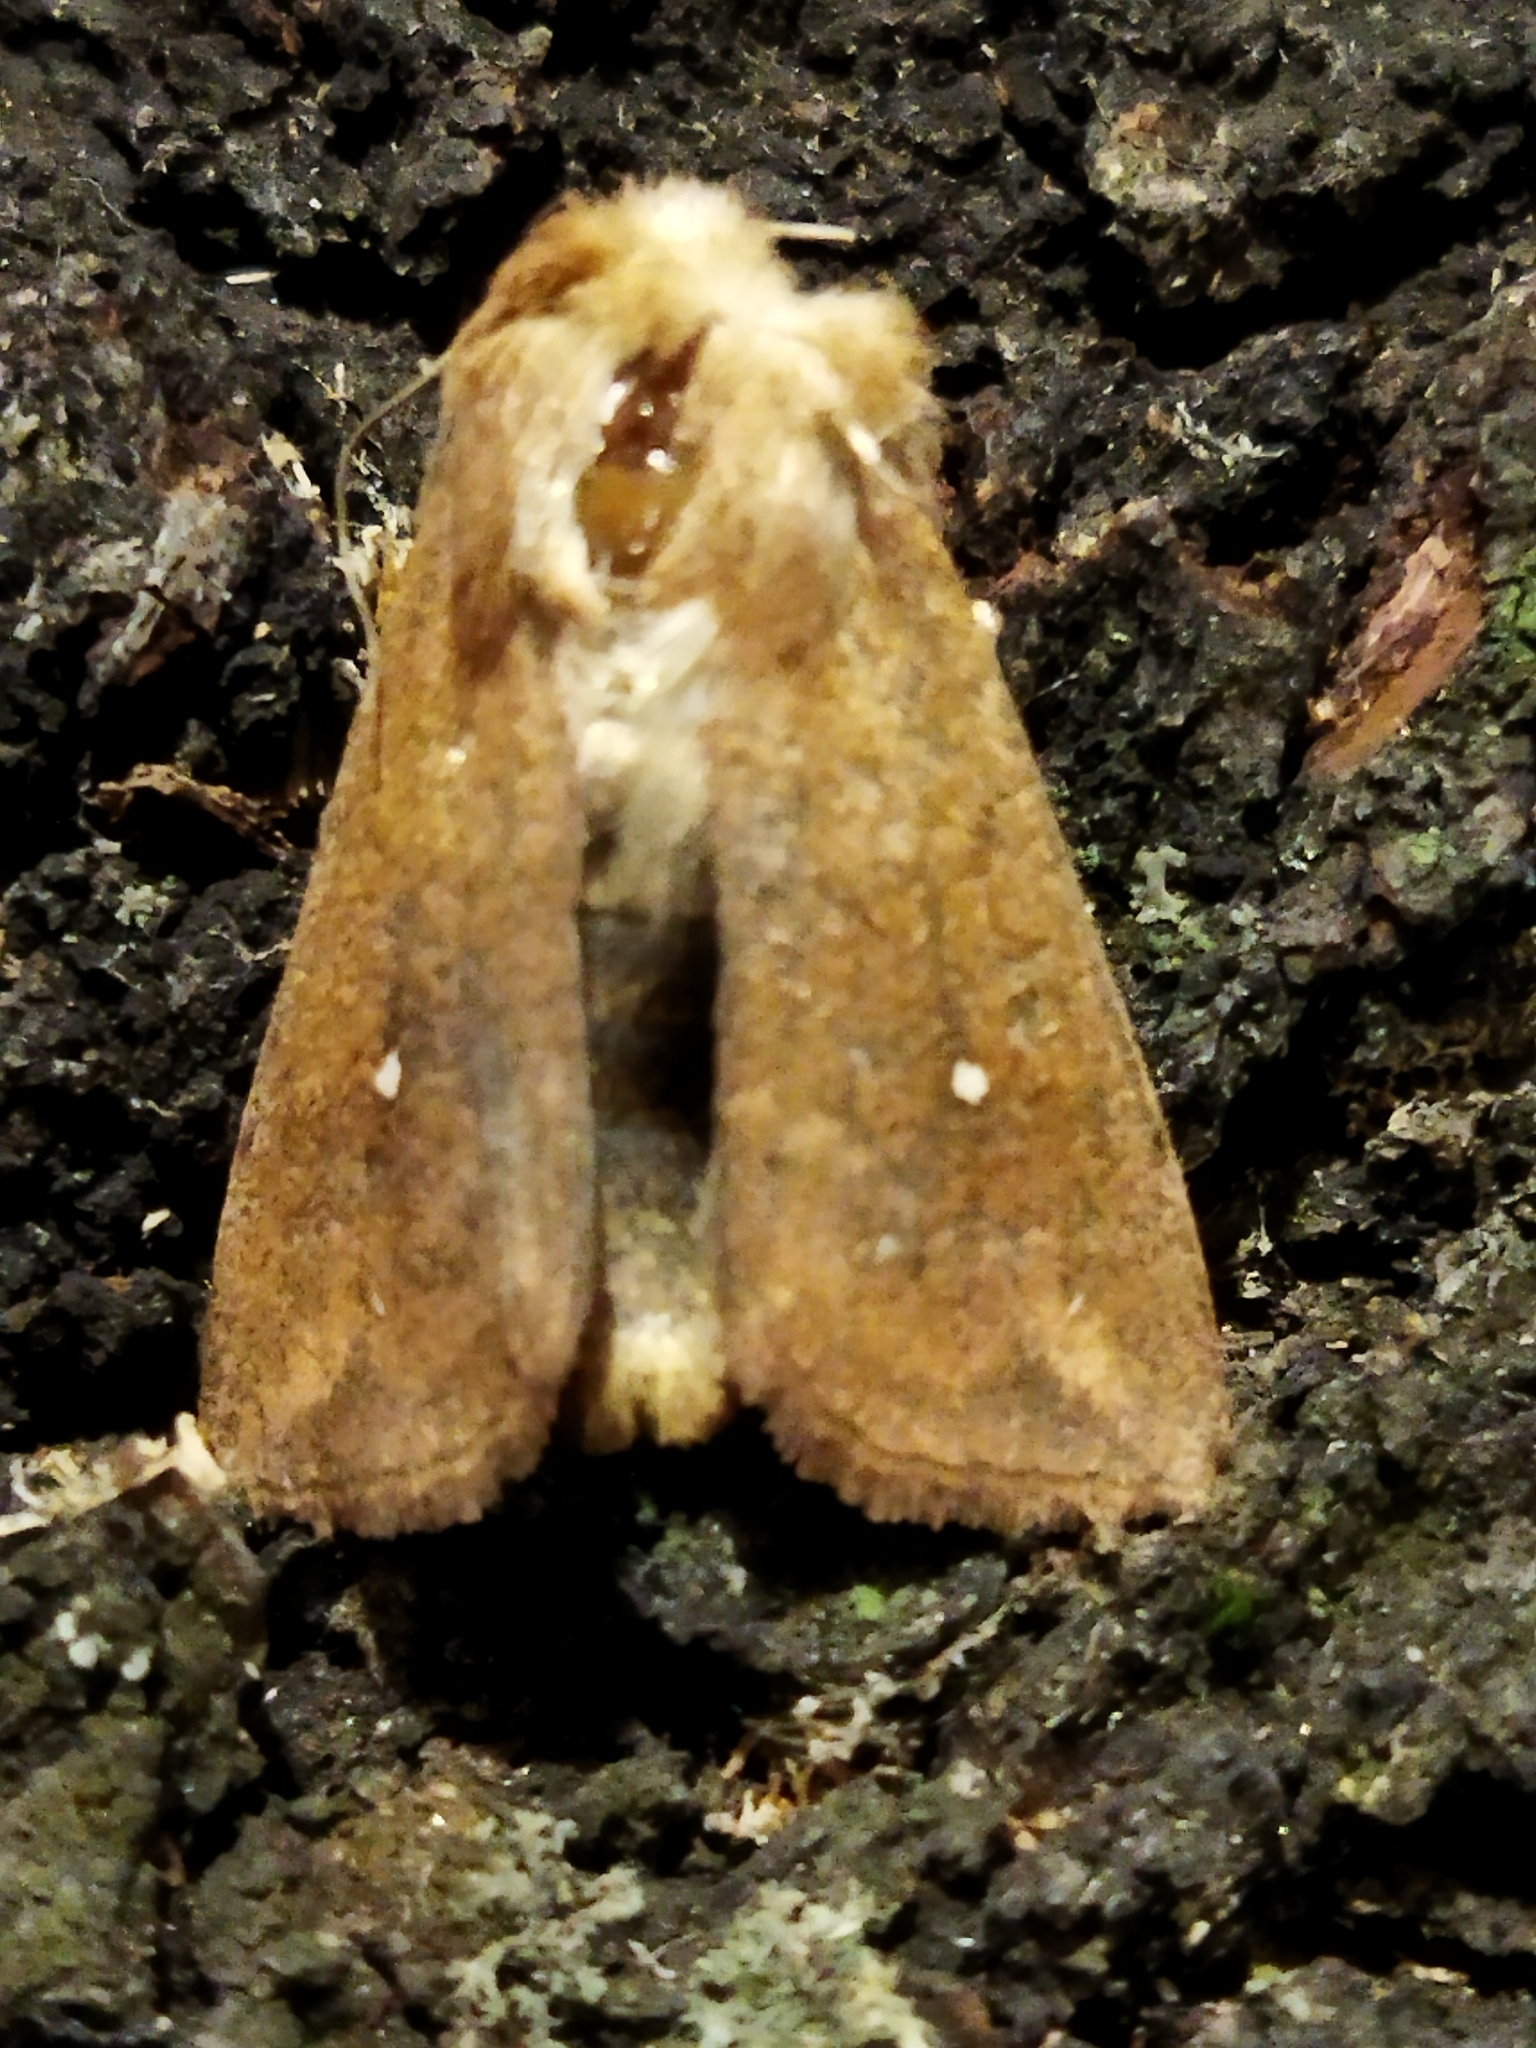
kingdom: Animalia
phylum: Arthropoda
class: Insecta
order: Lepidoptera
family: Noctuidae
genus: Mythimna
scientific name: Mythimna albipuncta
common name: White-point
